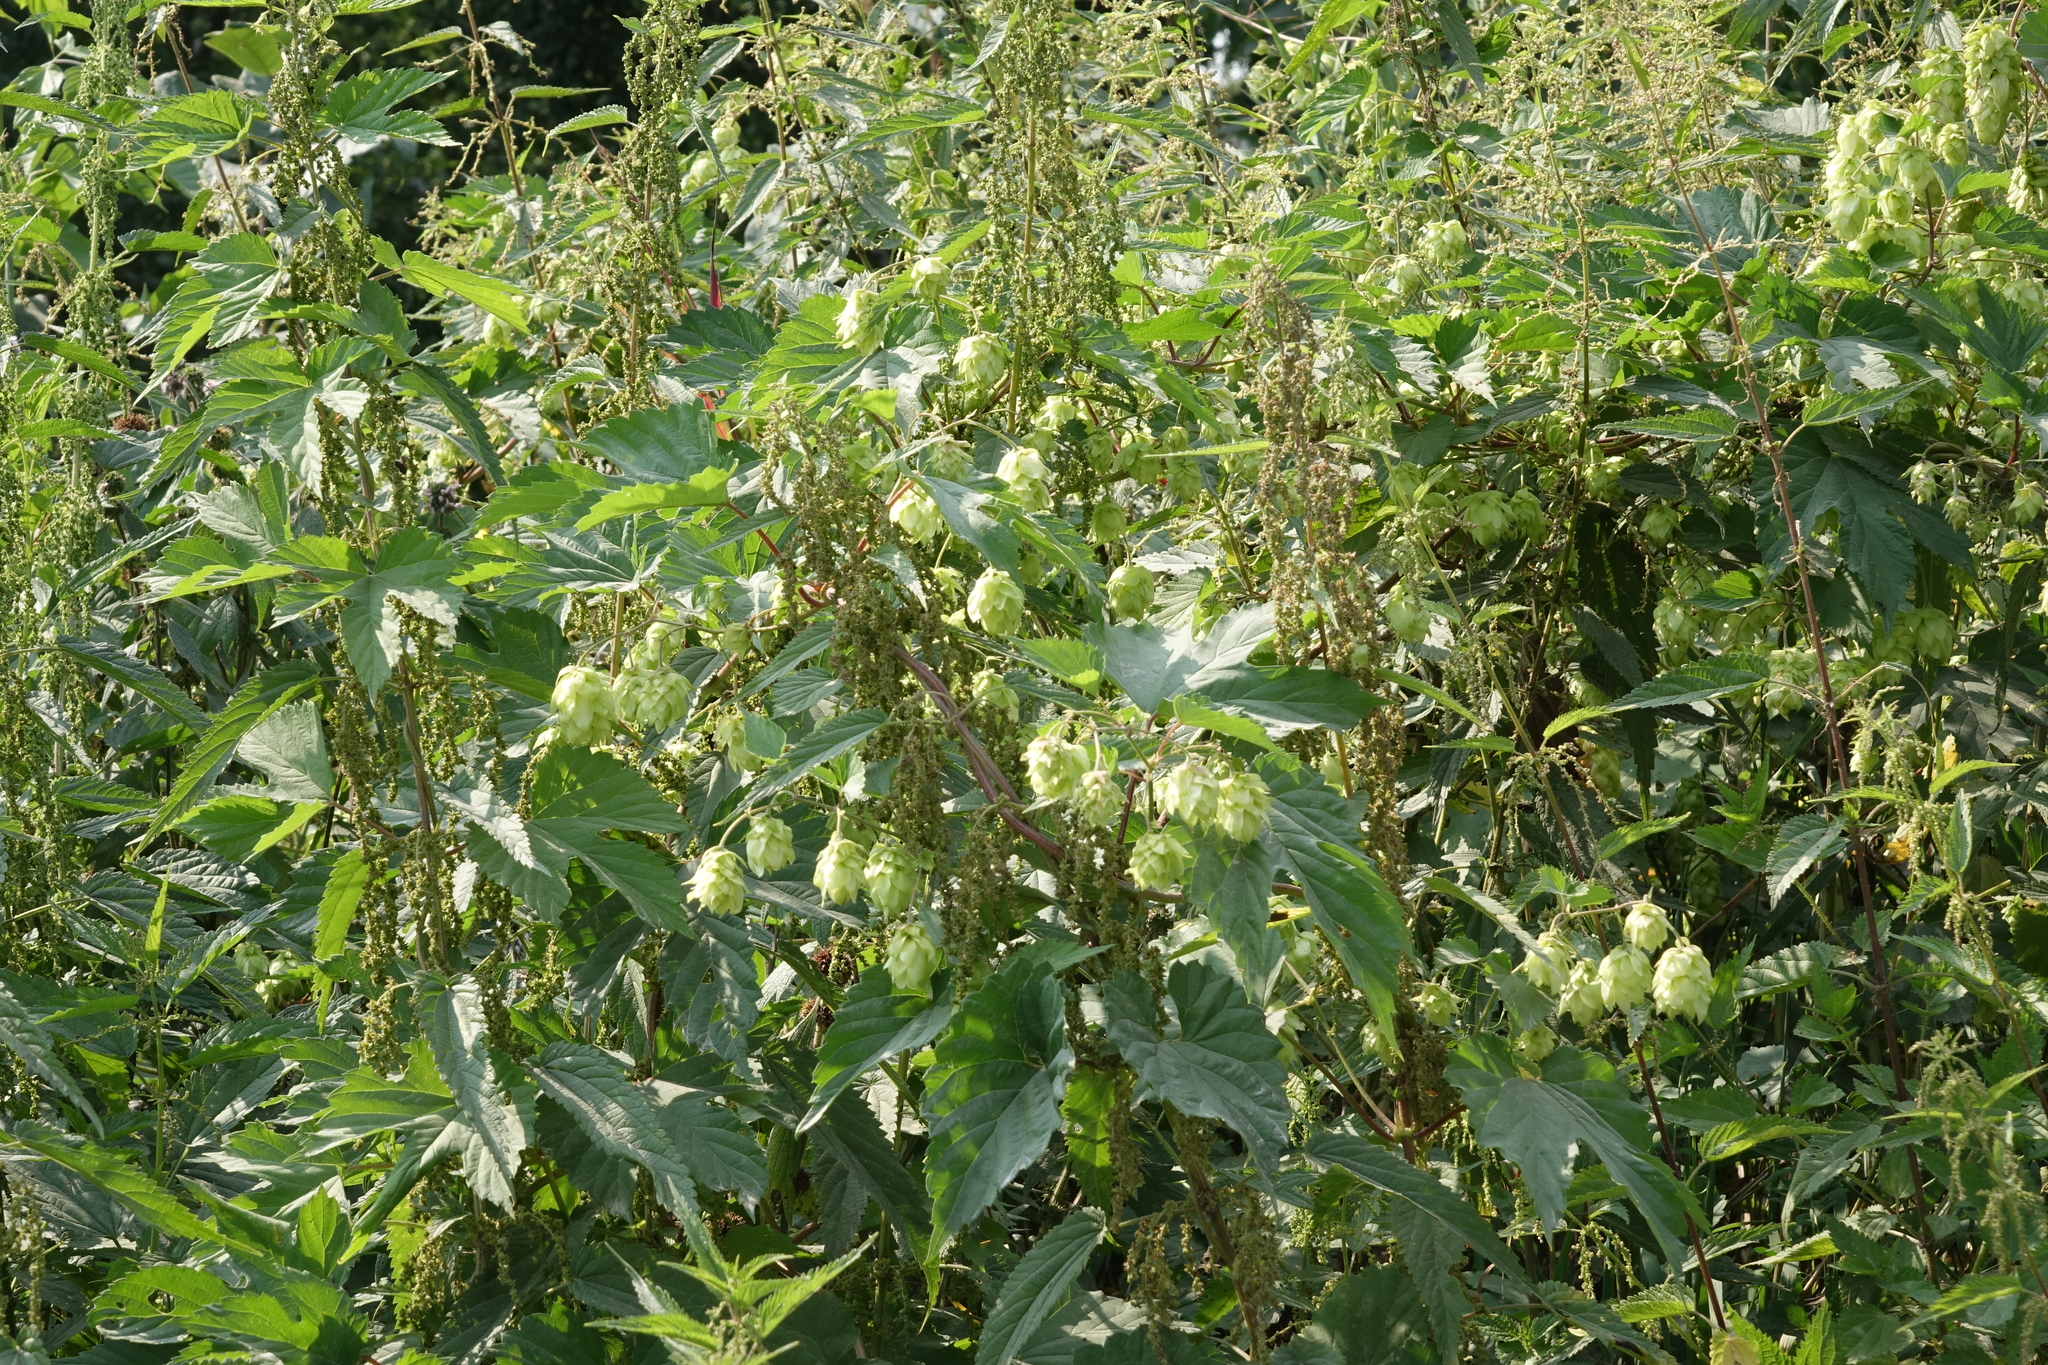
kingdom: Plantae
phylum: Tracheophyta
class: Magnoliopsida
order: Rosales
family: Urticaceae
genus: Urtica
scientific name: Urtica dioica
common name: Common nettle
